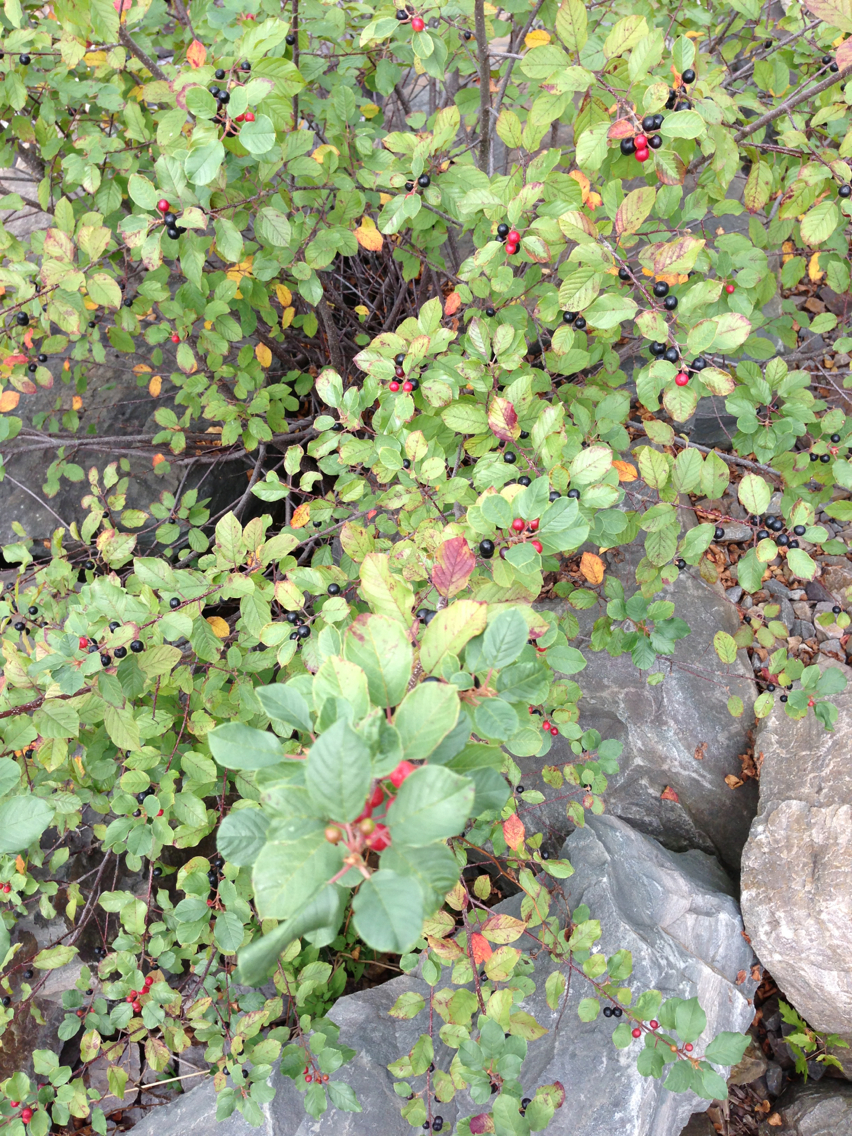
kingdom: Plantae
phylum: Tracheophyta
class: Magnoliopsida
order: Rosales
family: Rhamnaceae
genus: Frangula
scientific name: Frangula alnus
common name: Alder buckthorn
